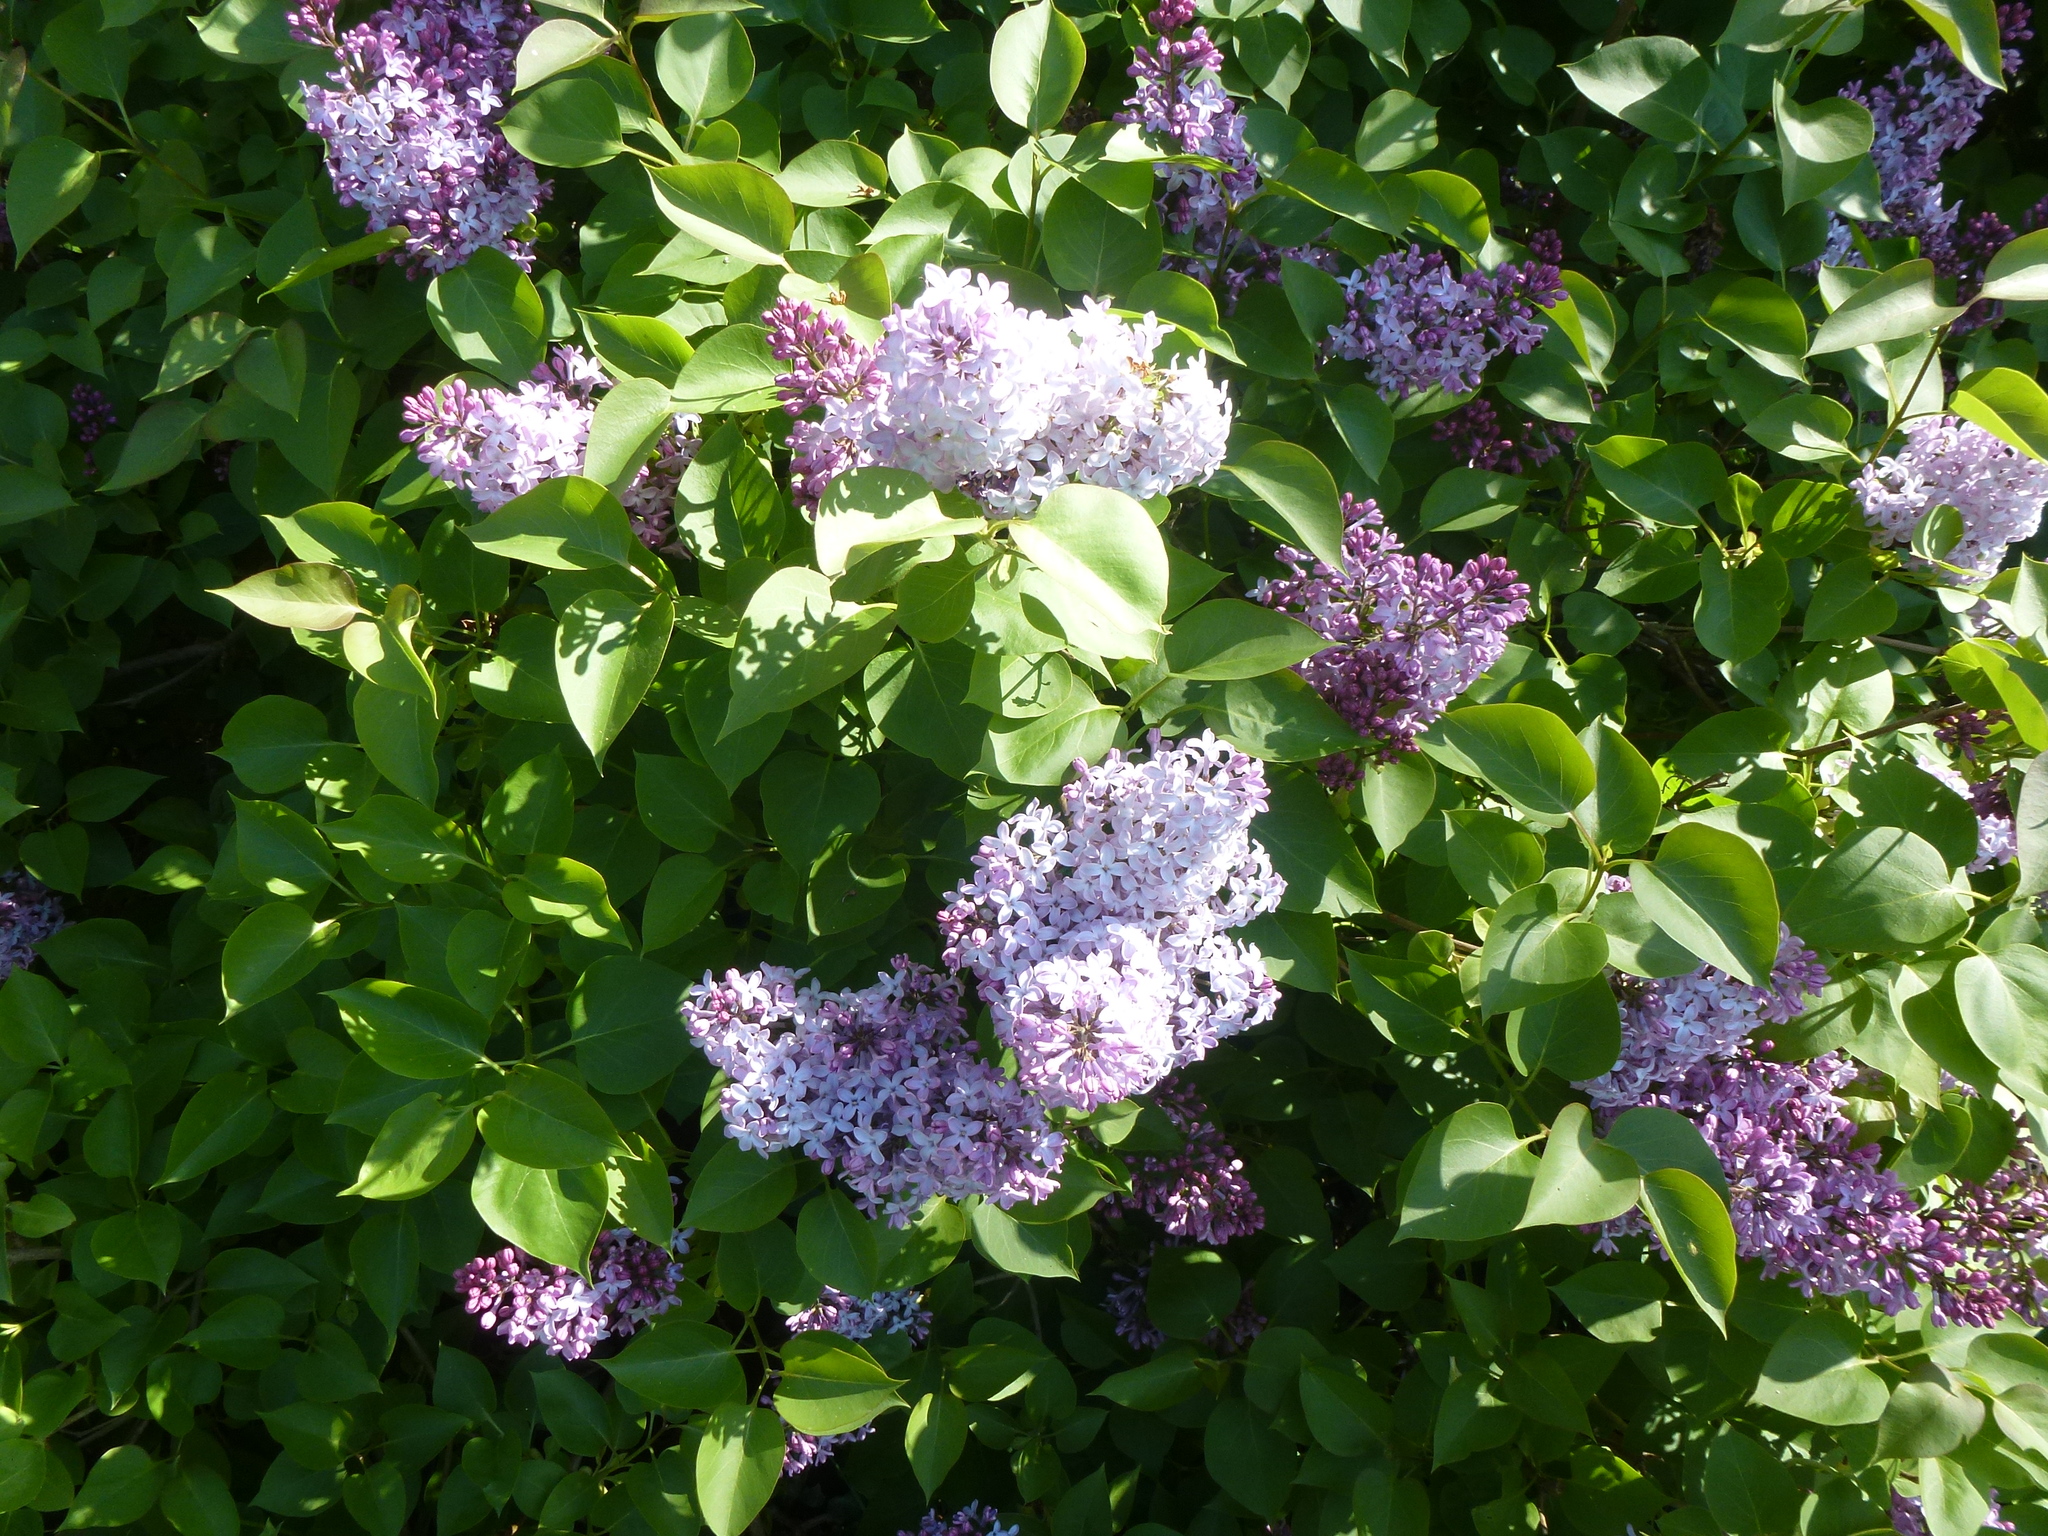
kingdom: Plantae
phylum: Tracheophyta
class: Magnoliopsida
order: Lamiales
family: Oleaceae
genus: Syringa
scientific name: Syringa vulgaris
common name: Common lilac
